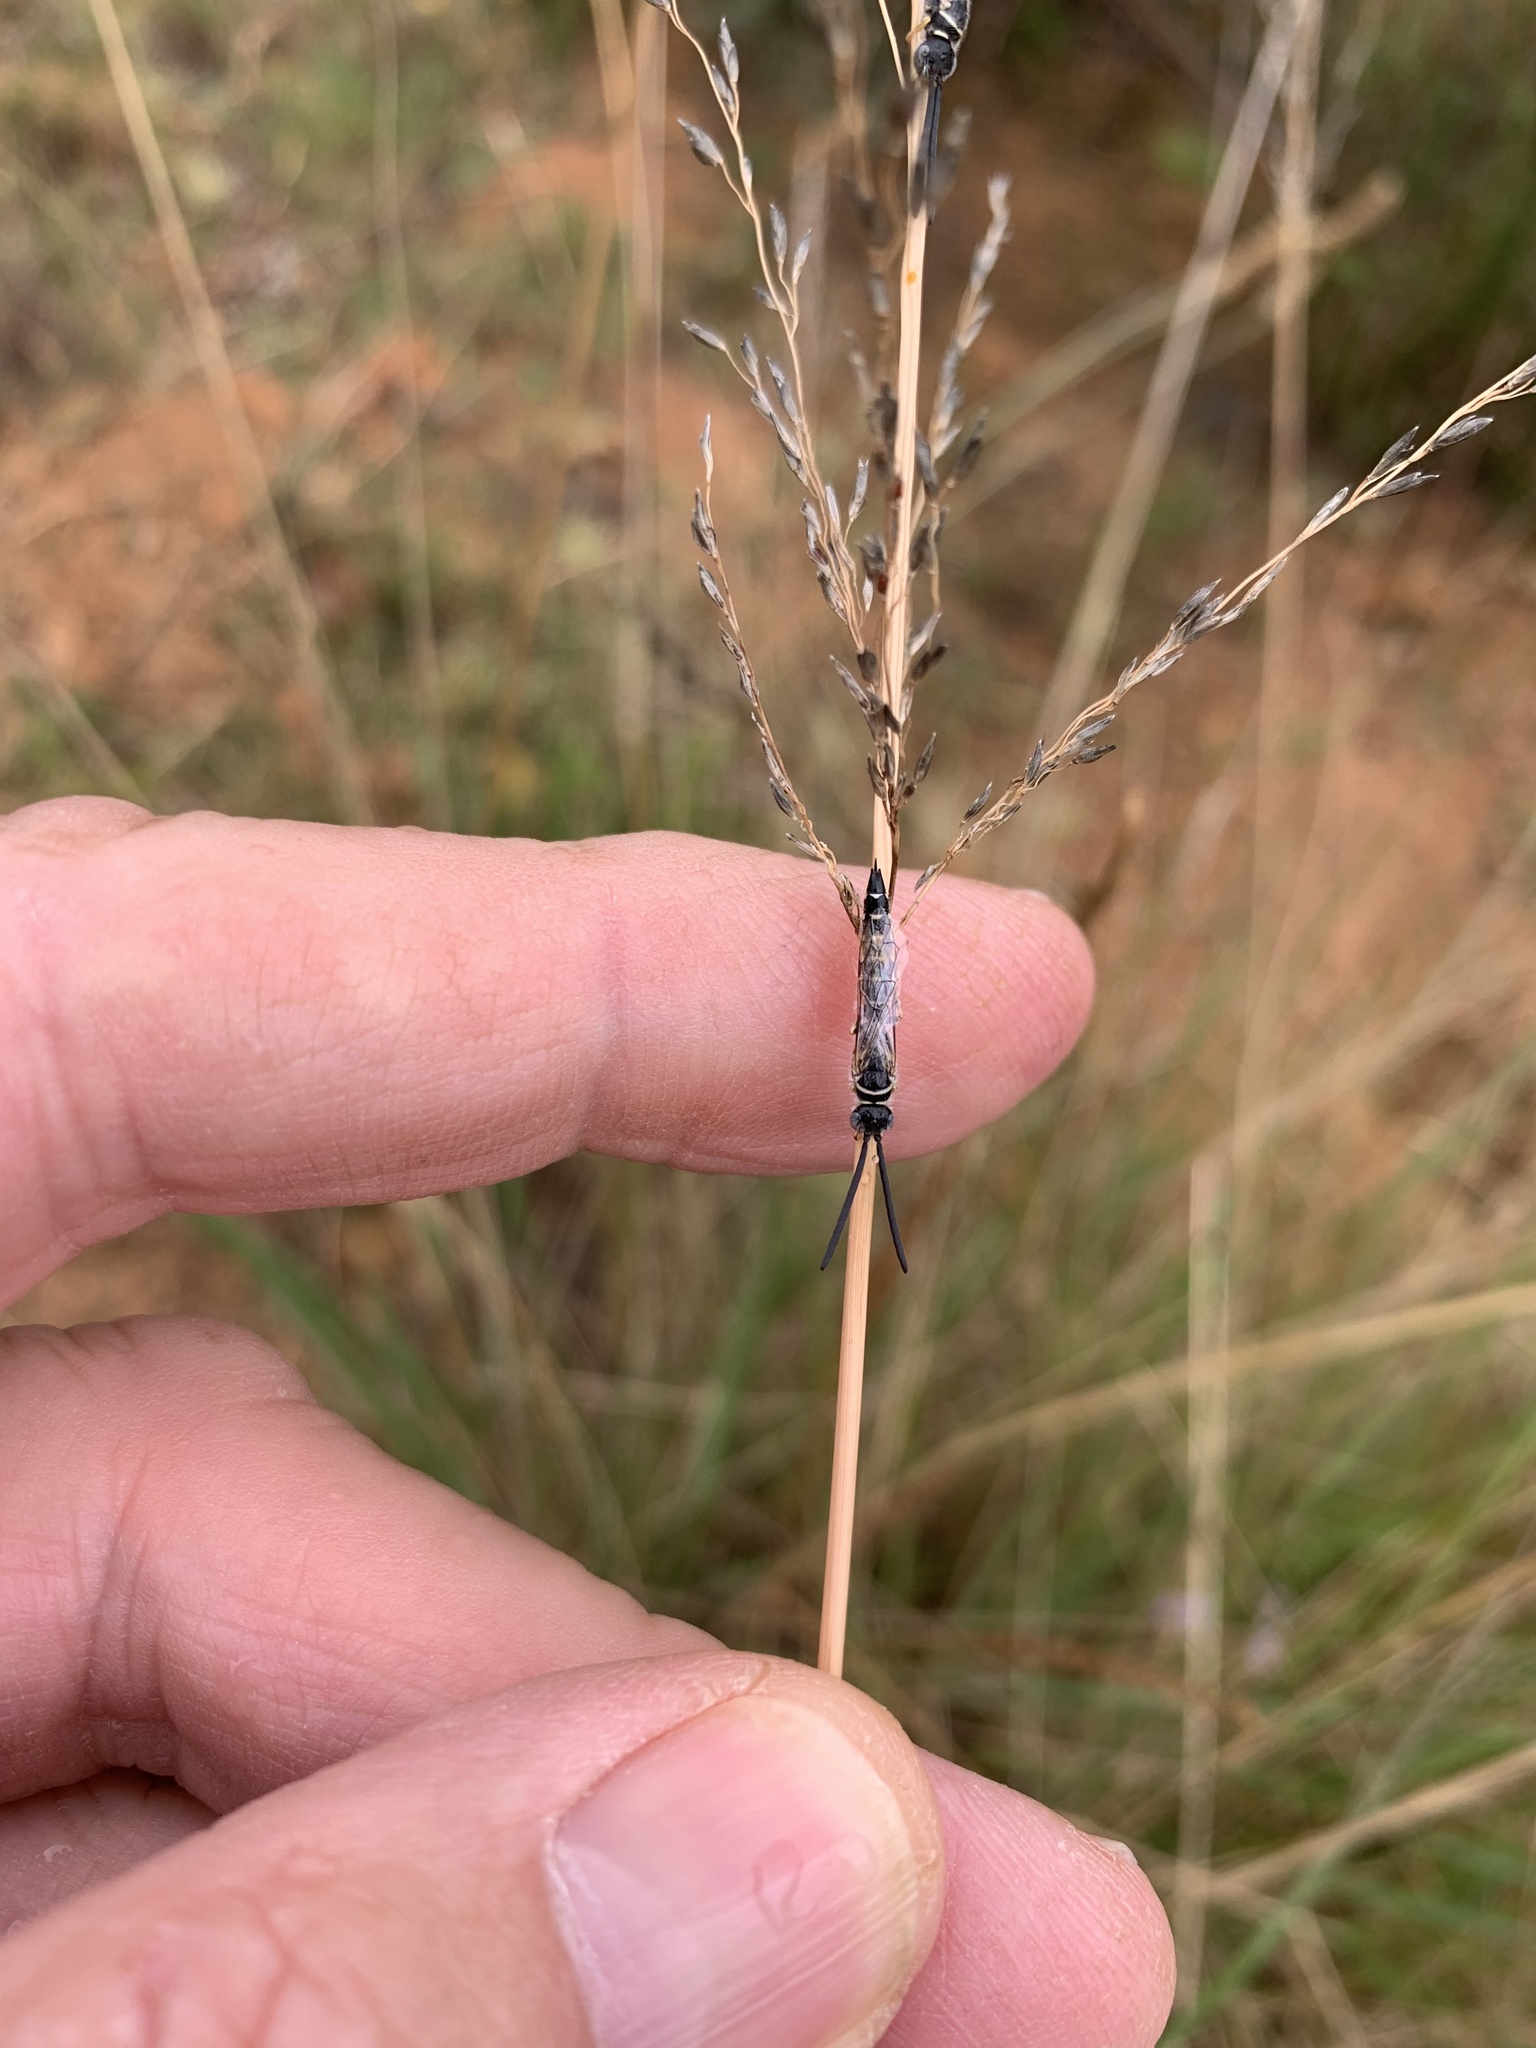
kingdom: Plantae
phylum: Tracheophyta
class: Liliopsida
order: Poales
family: Poaceae
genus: Eragrostis
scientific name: Eragrostis curvula
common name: African love-grass
